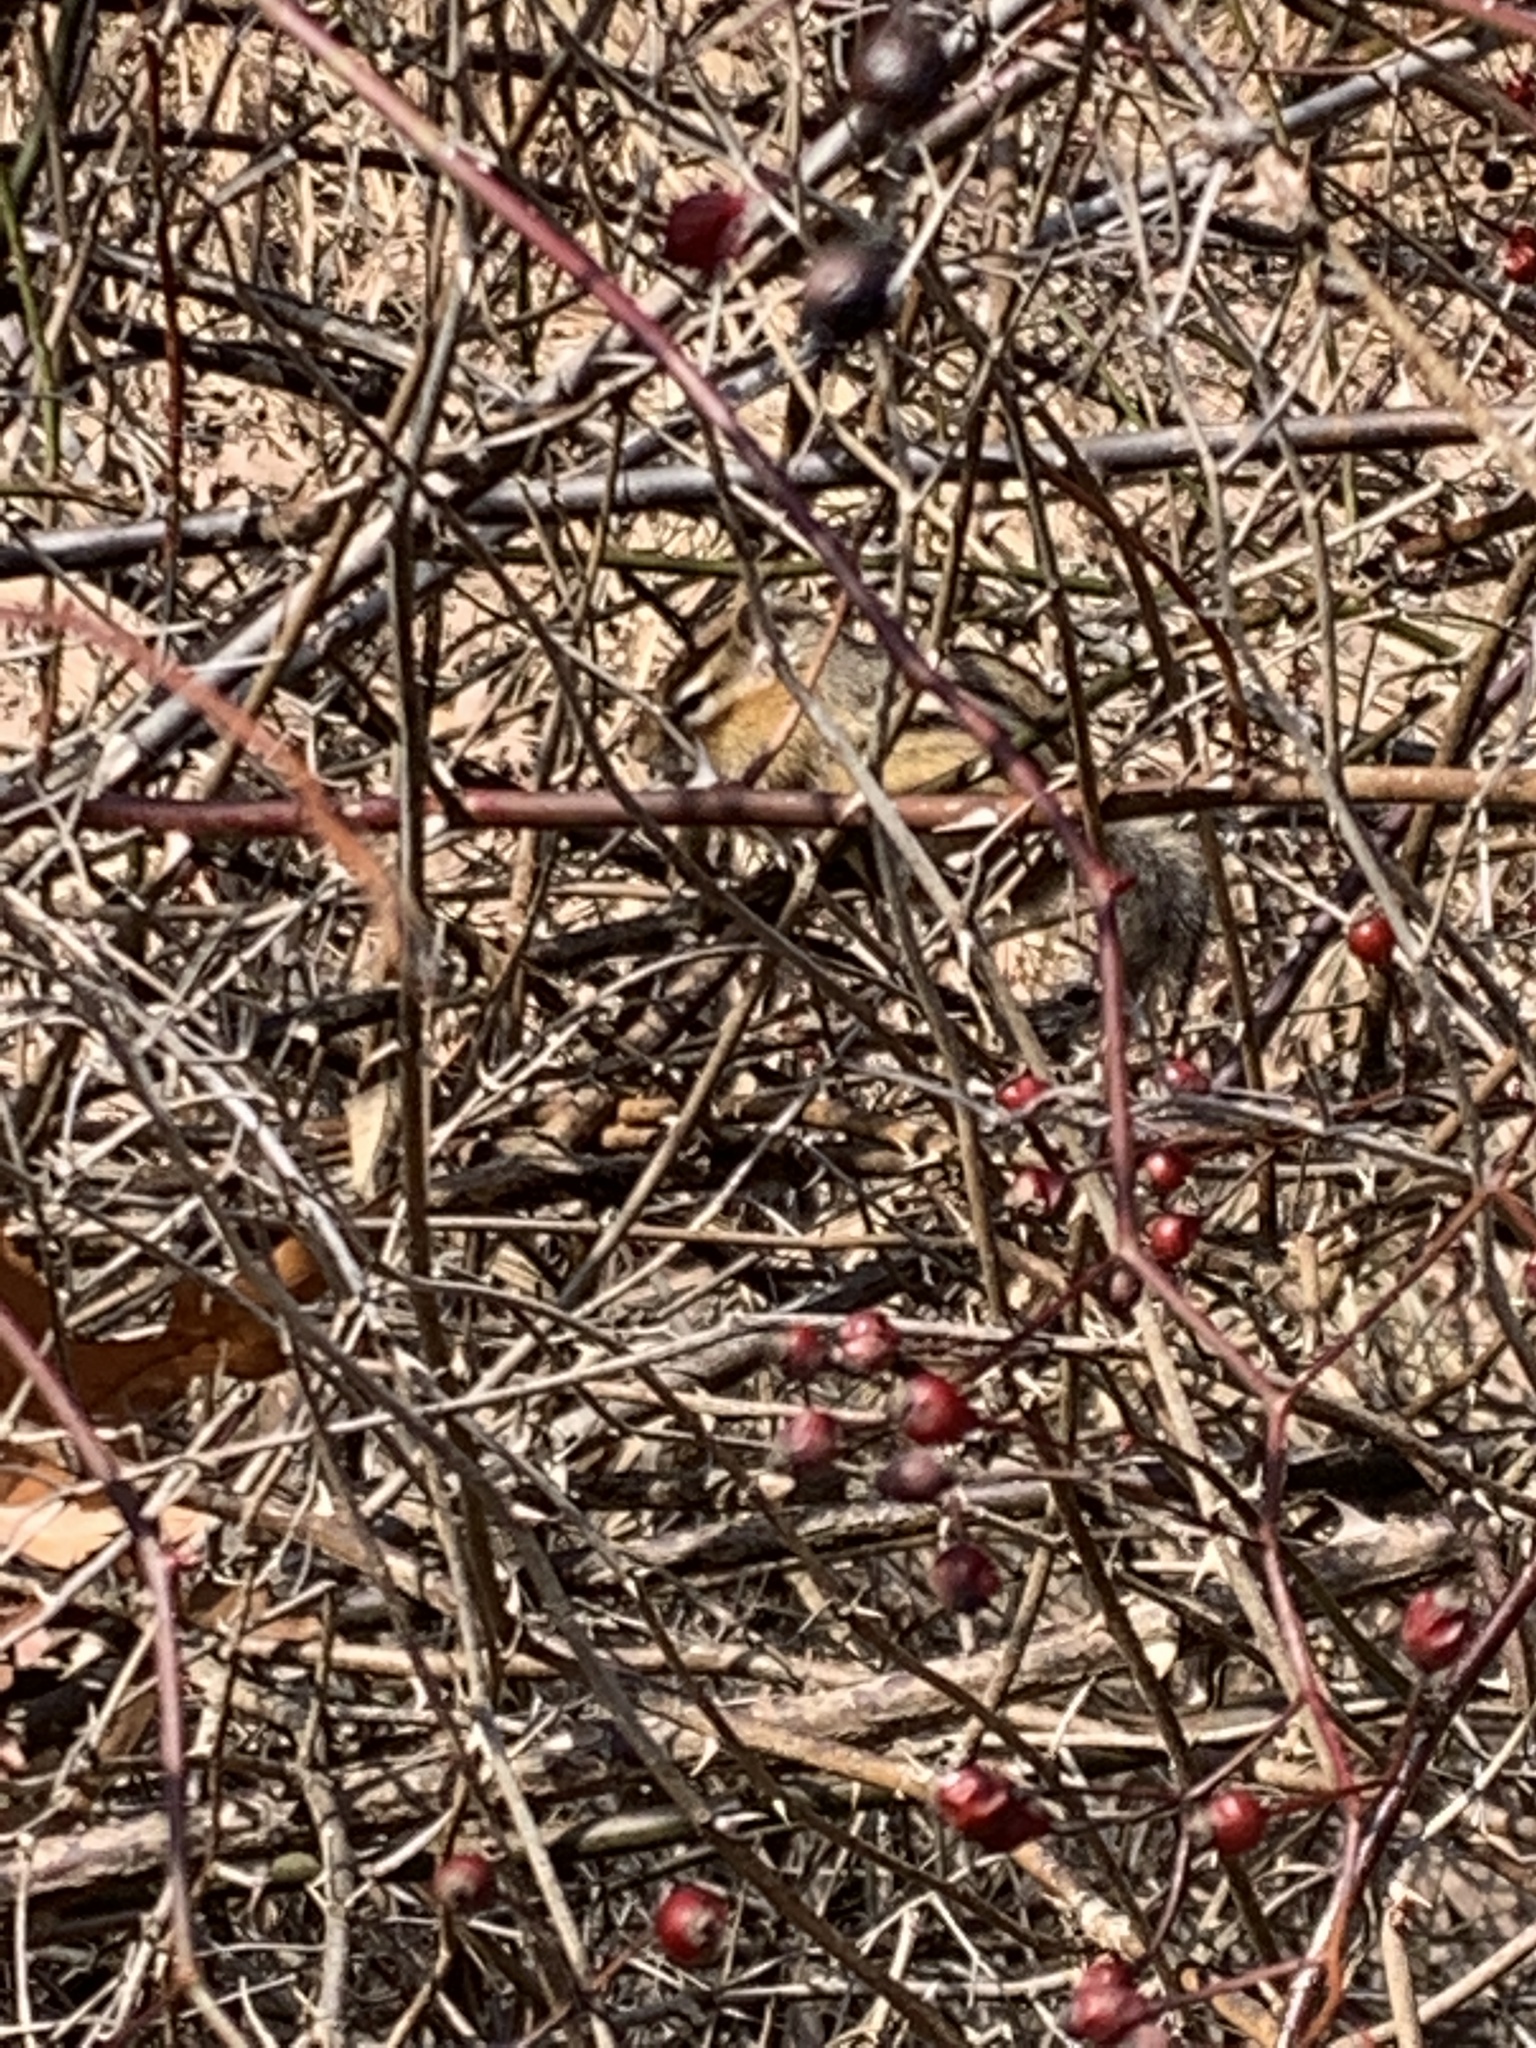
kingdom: Animalia
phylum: Chordata
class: Mammalia
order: Rodentia
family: Sciuridae
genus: Tamias
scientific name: Tamias striatus
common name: Eastern chipmunk
